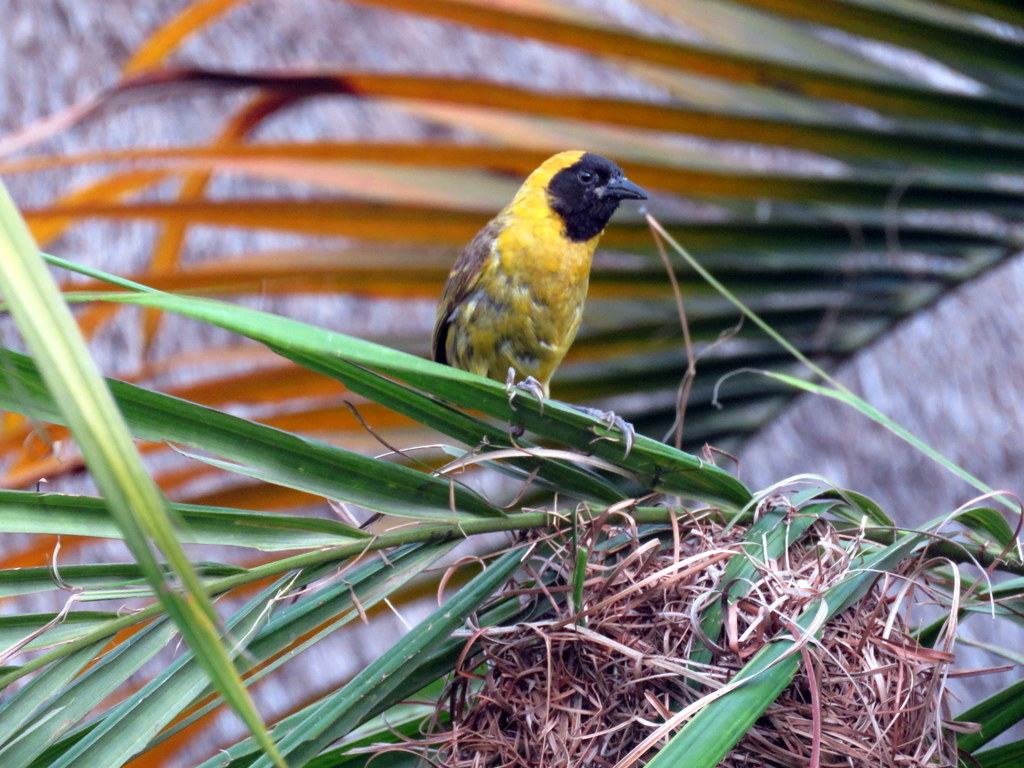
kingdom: Animalia
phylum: Chordata
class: Aves
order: Passeriformes
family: Ploceidae
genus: Ploceus
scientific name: Ploceus pelzelni
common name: Slender-billed weaver
